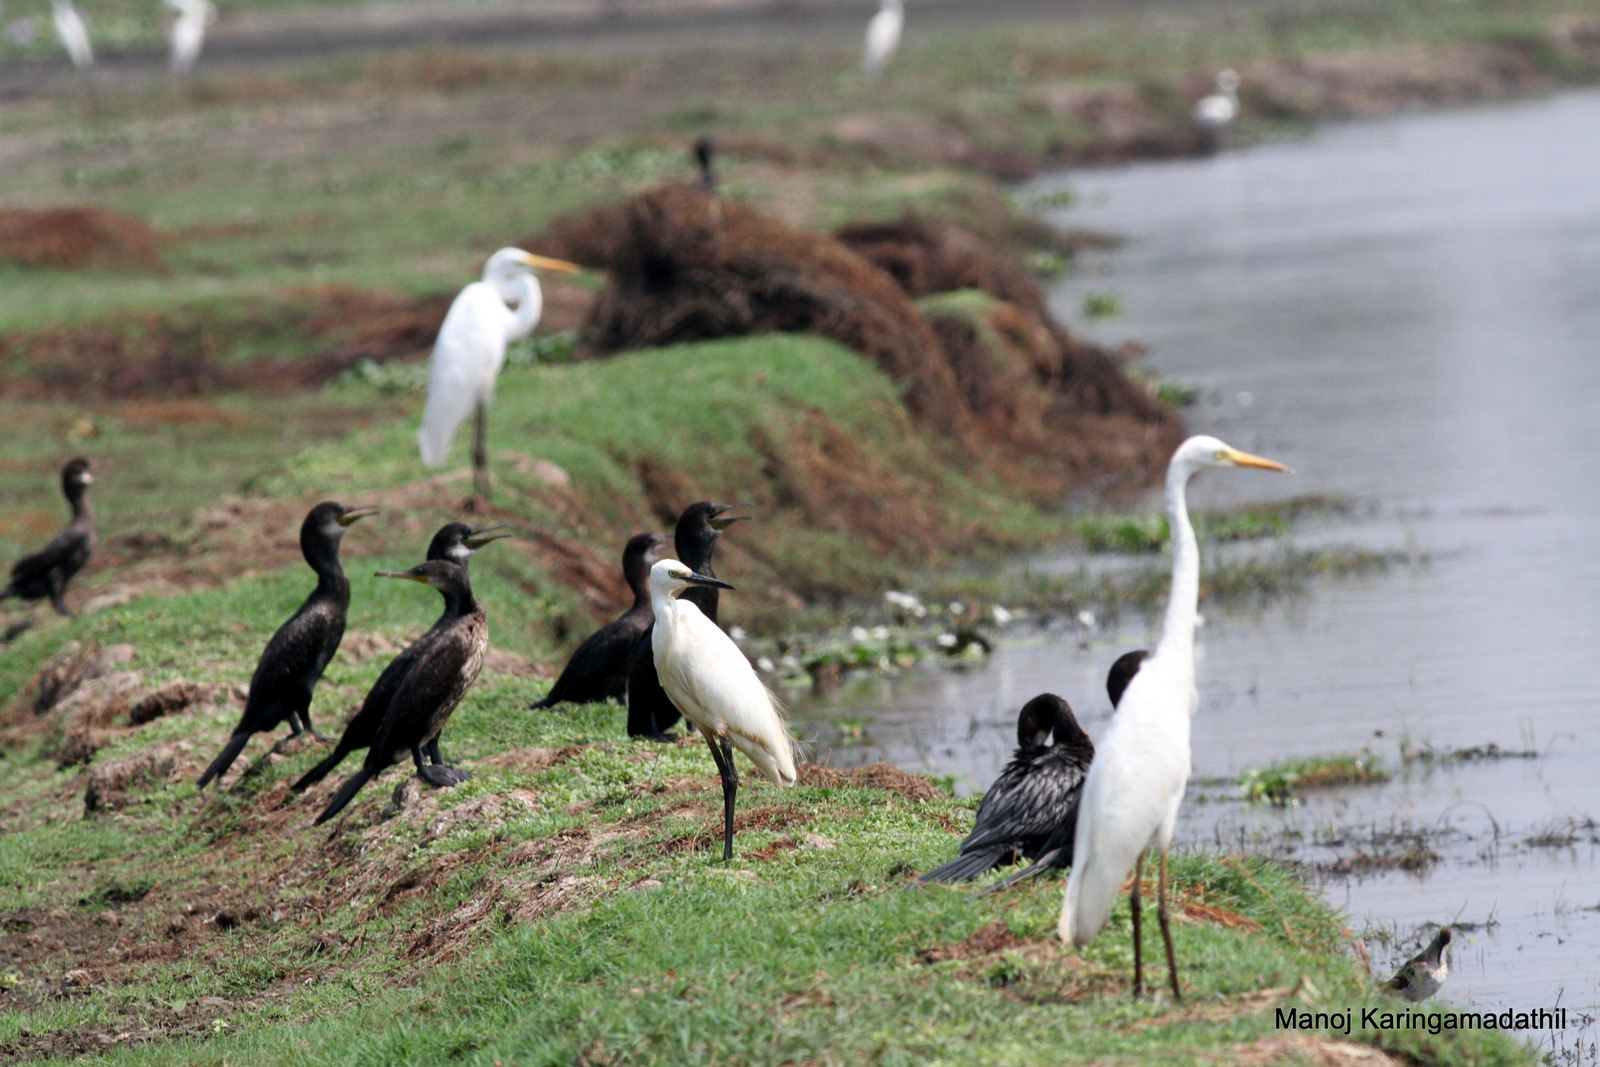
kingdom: Animalia
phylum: Chordata
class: Aves
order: Pelecaniformes
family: Ardeidae
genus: Egretta
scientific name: Egretta garzetta
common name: Little egret
